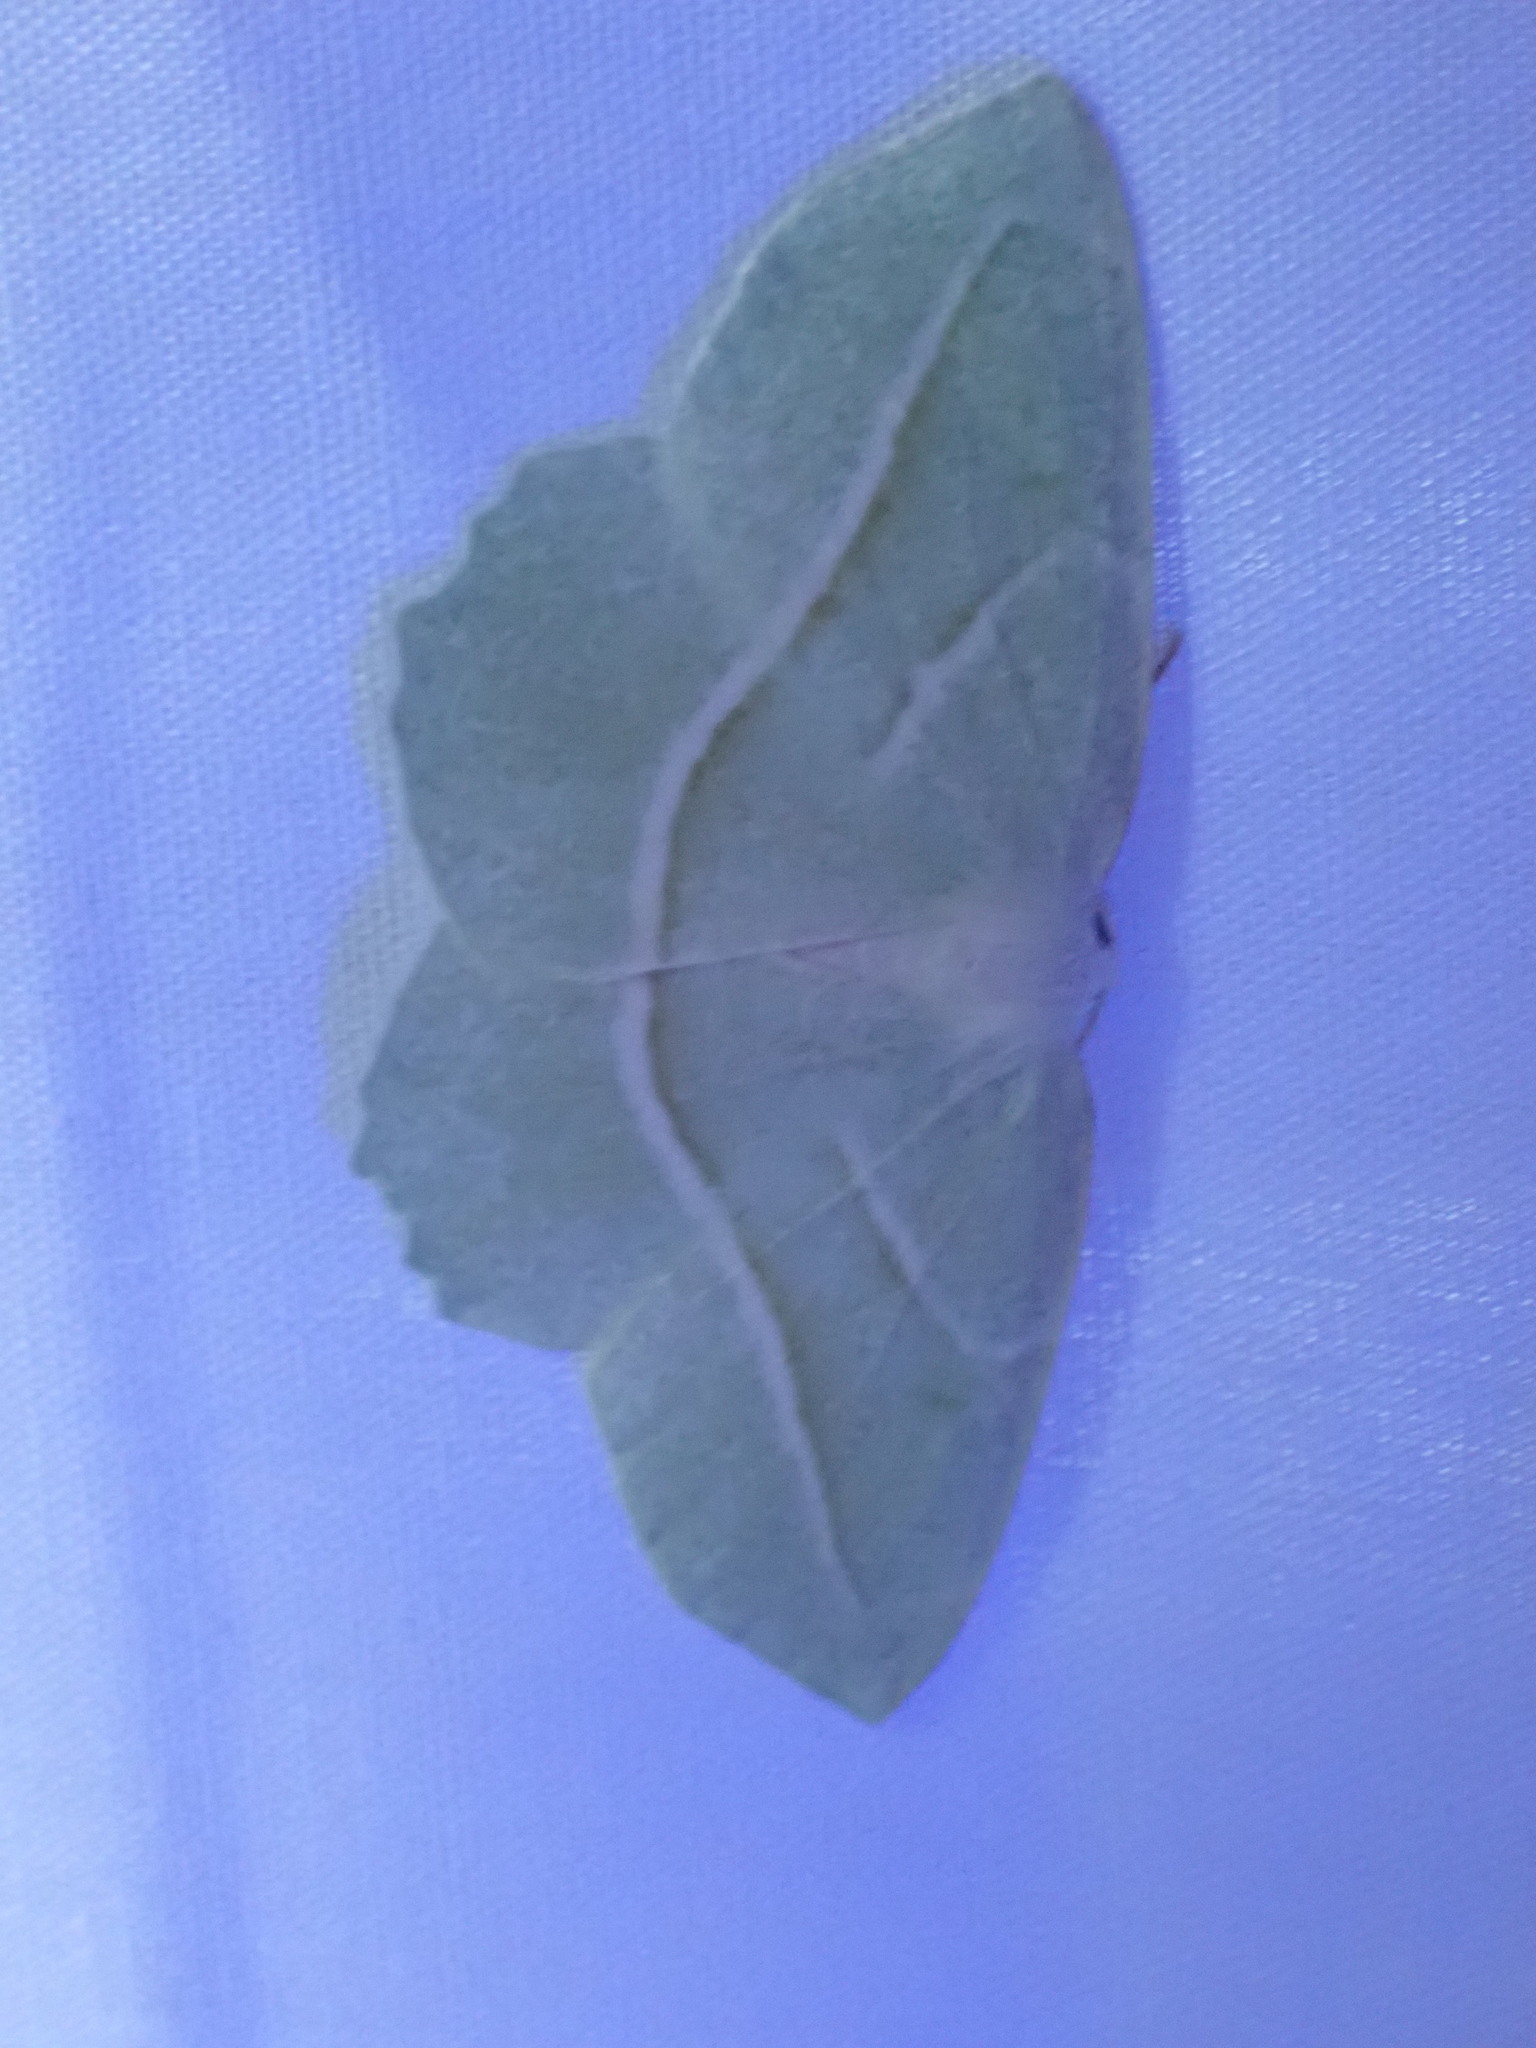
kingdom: Animalia
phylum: Arthropoda
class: Insecta
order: Lepidoptera
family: Geometridae
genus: Campaea
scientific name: Campaea perlata
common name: Fringed looper
